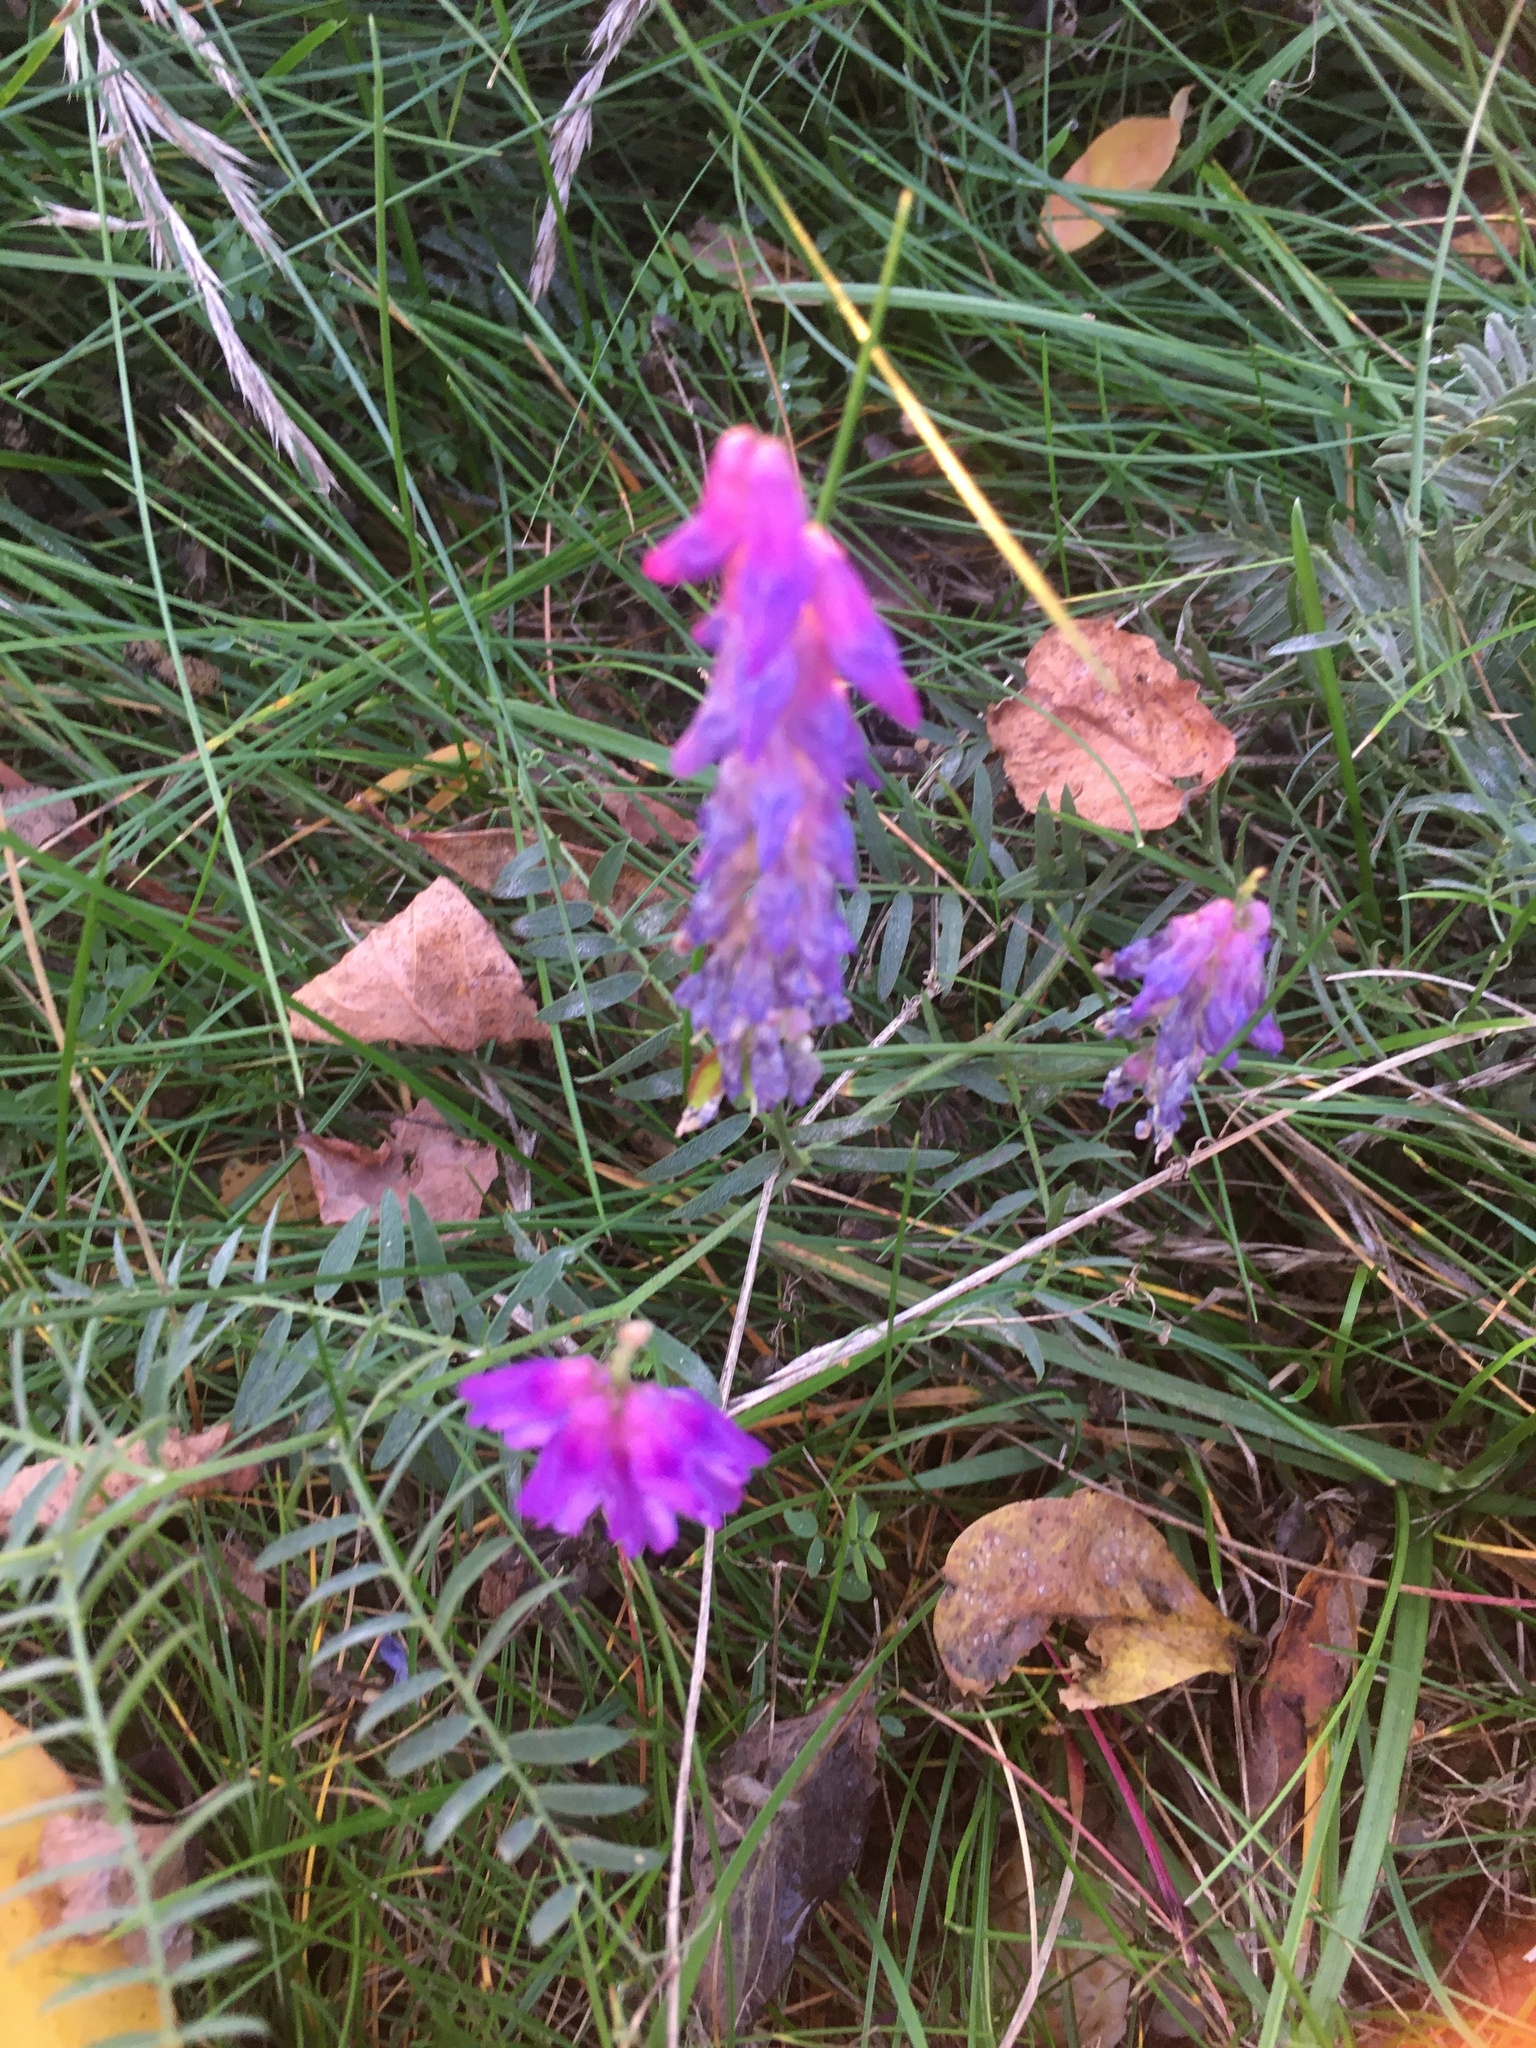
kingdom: Plantae
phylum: Tracheophyta
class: Magnoliopsida
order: Fabales
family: Fabaceae
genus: Vicia
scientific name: Vicia cracca
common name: Bird vetch
